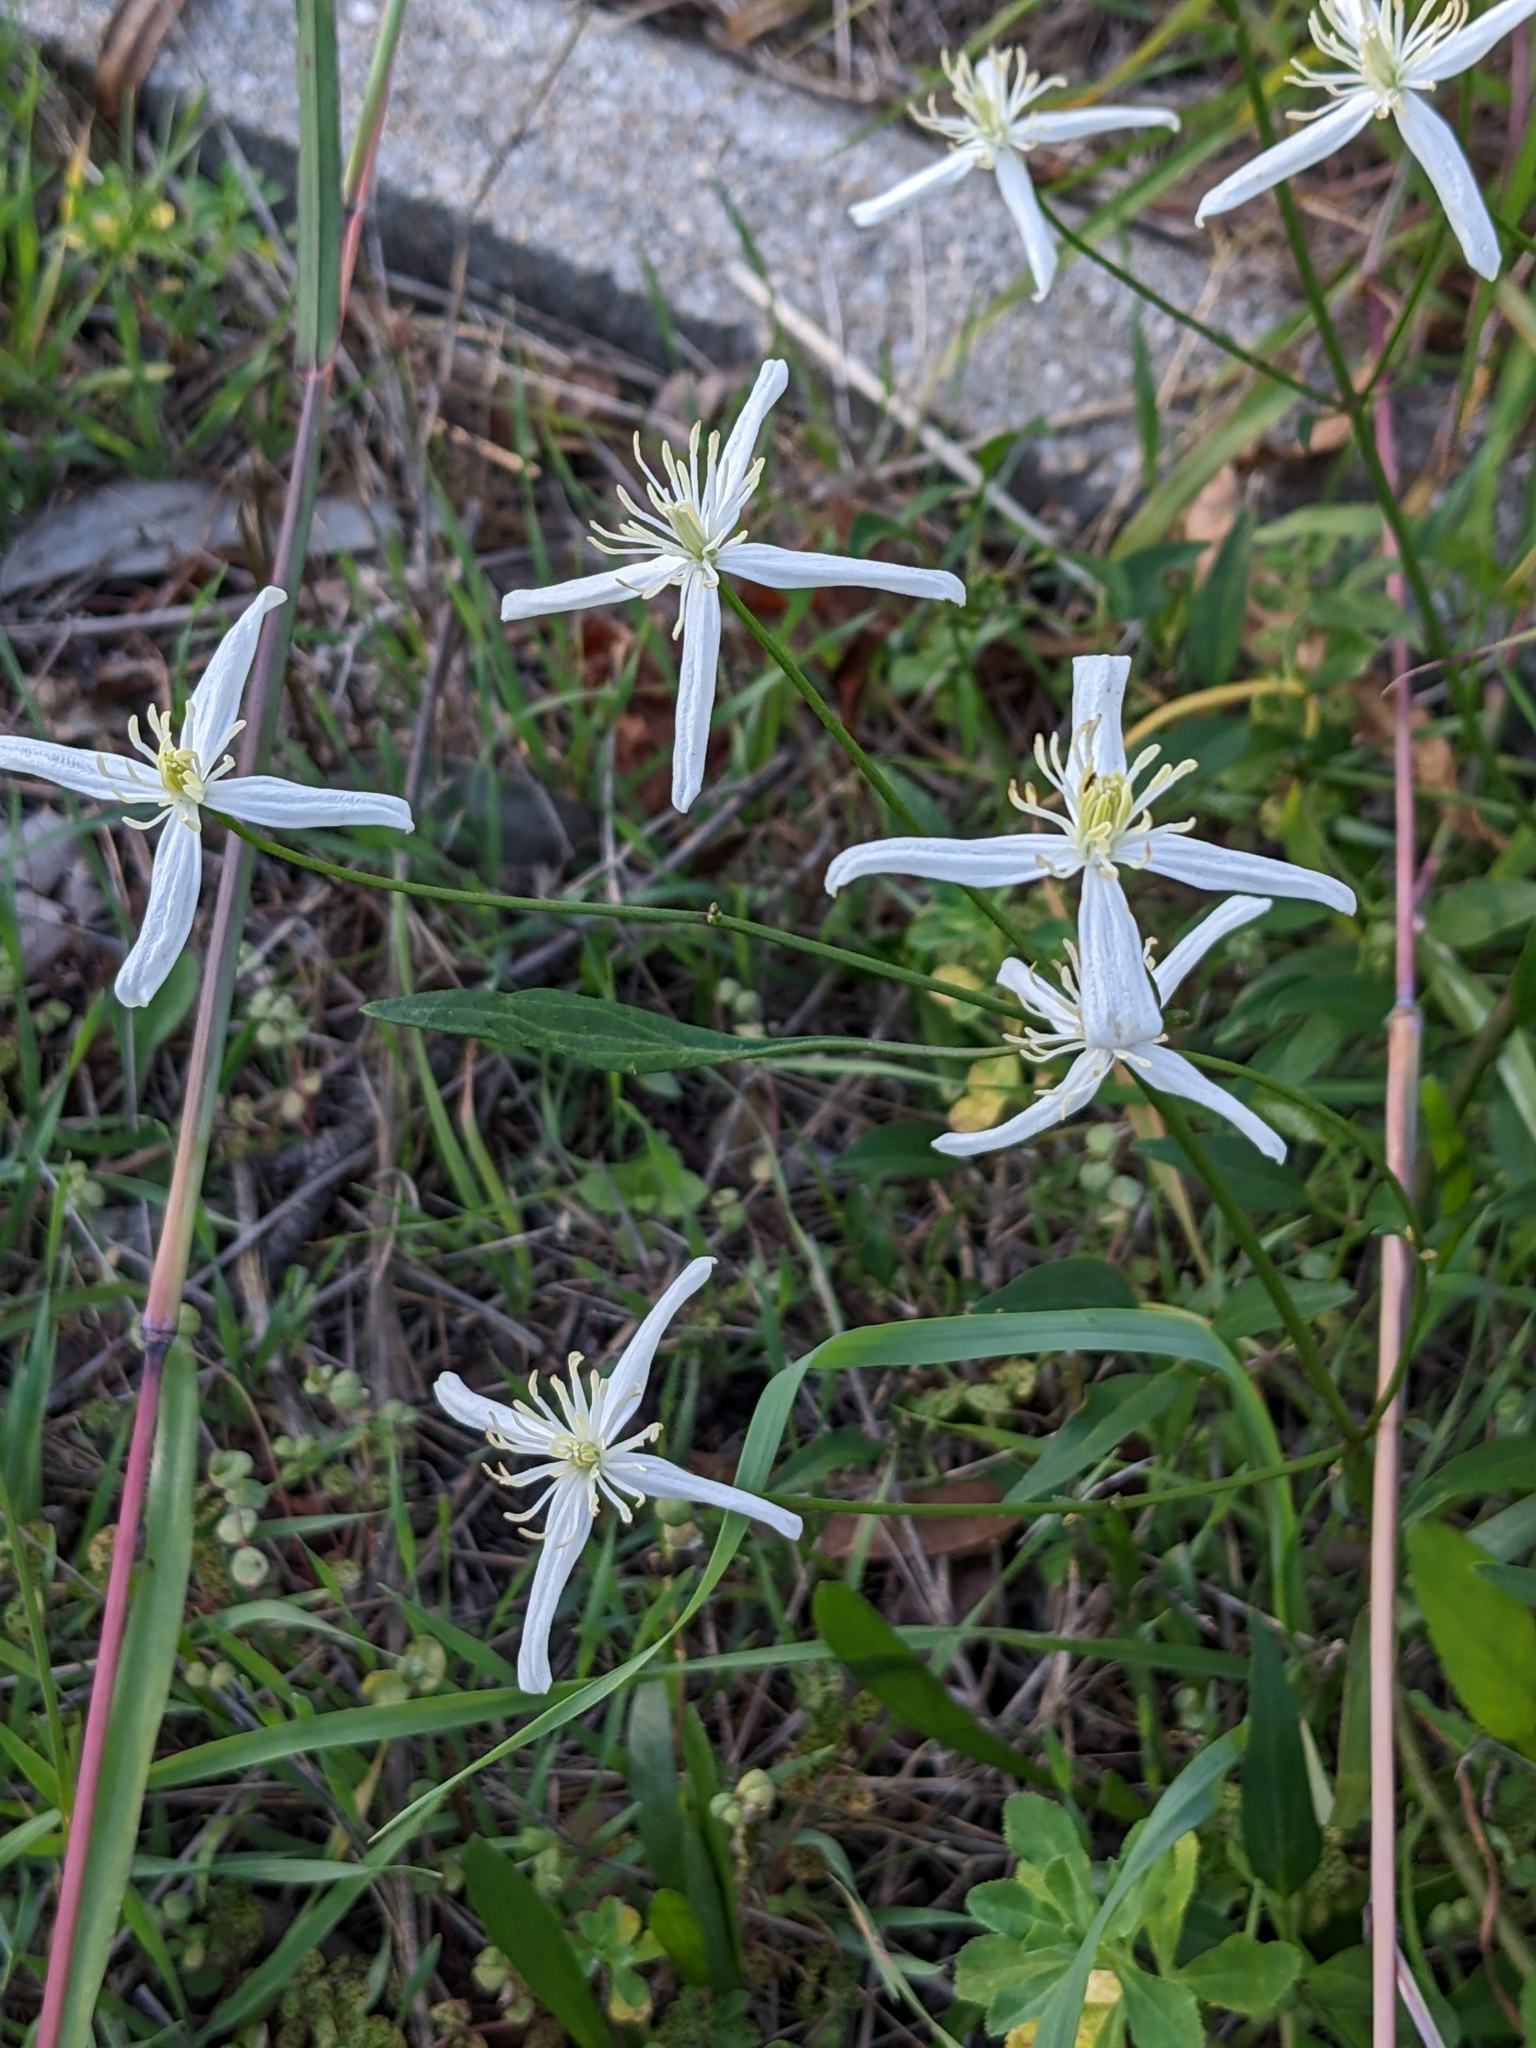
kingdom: Plantae
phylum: Tracheophyta
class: Magnoliopsida
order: Ranunculales
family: Ranunculaceae
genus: Clematis
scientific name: Clematis flammula
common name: Virgin's-bower
